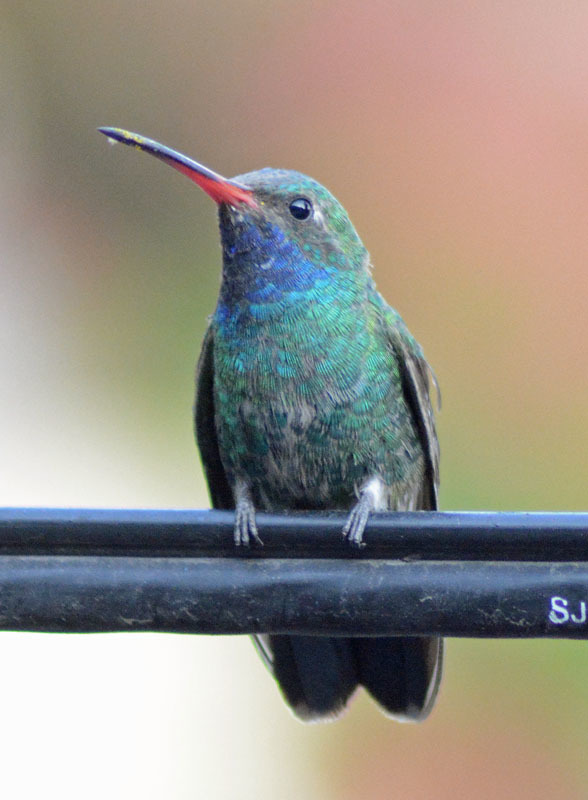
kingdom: Animalia
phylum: Chordata
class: Aves
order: Apodiformes
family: Trochilidae
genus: Cynanthus
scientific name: Cynanthus latirostris
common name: Broad-billed hummingbird
